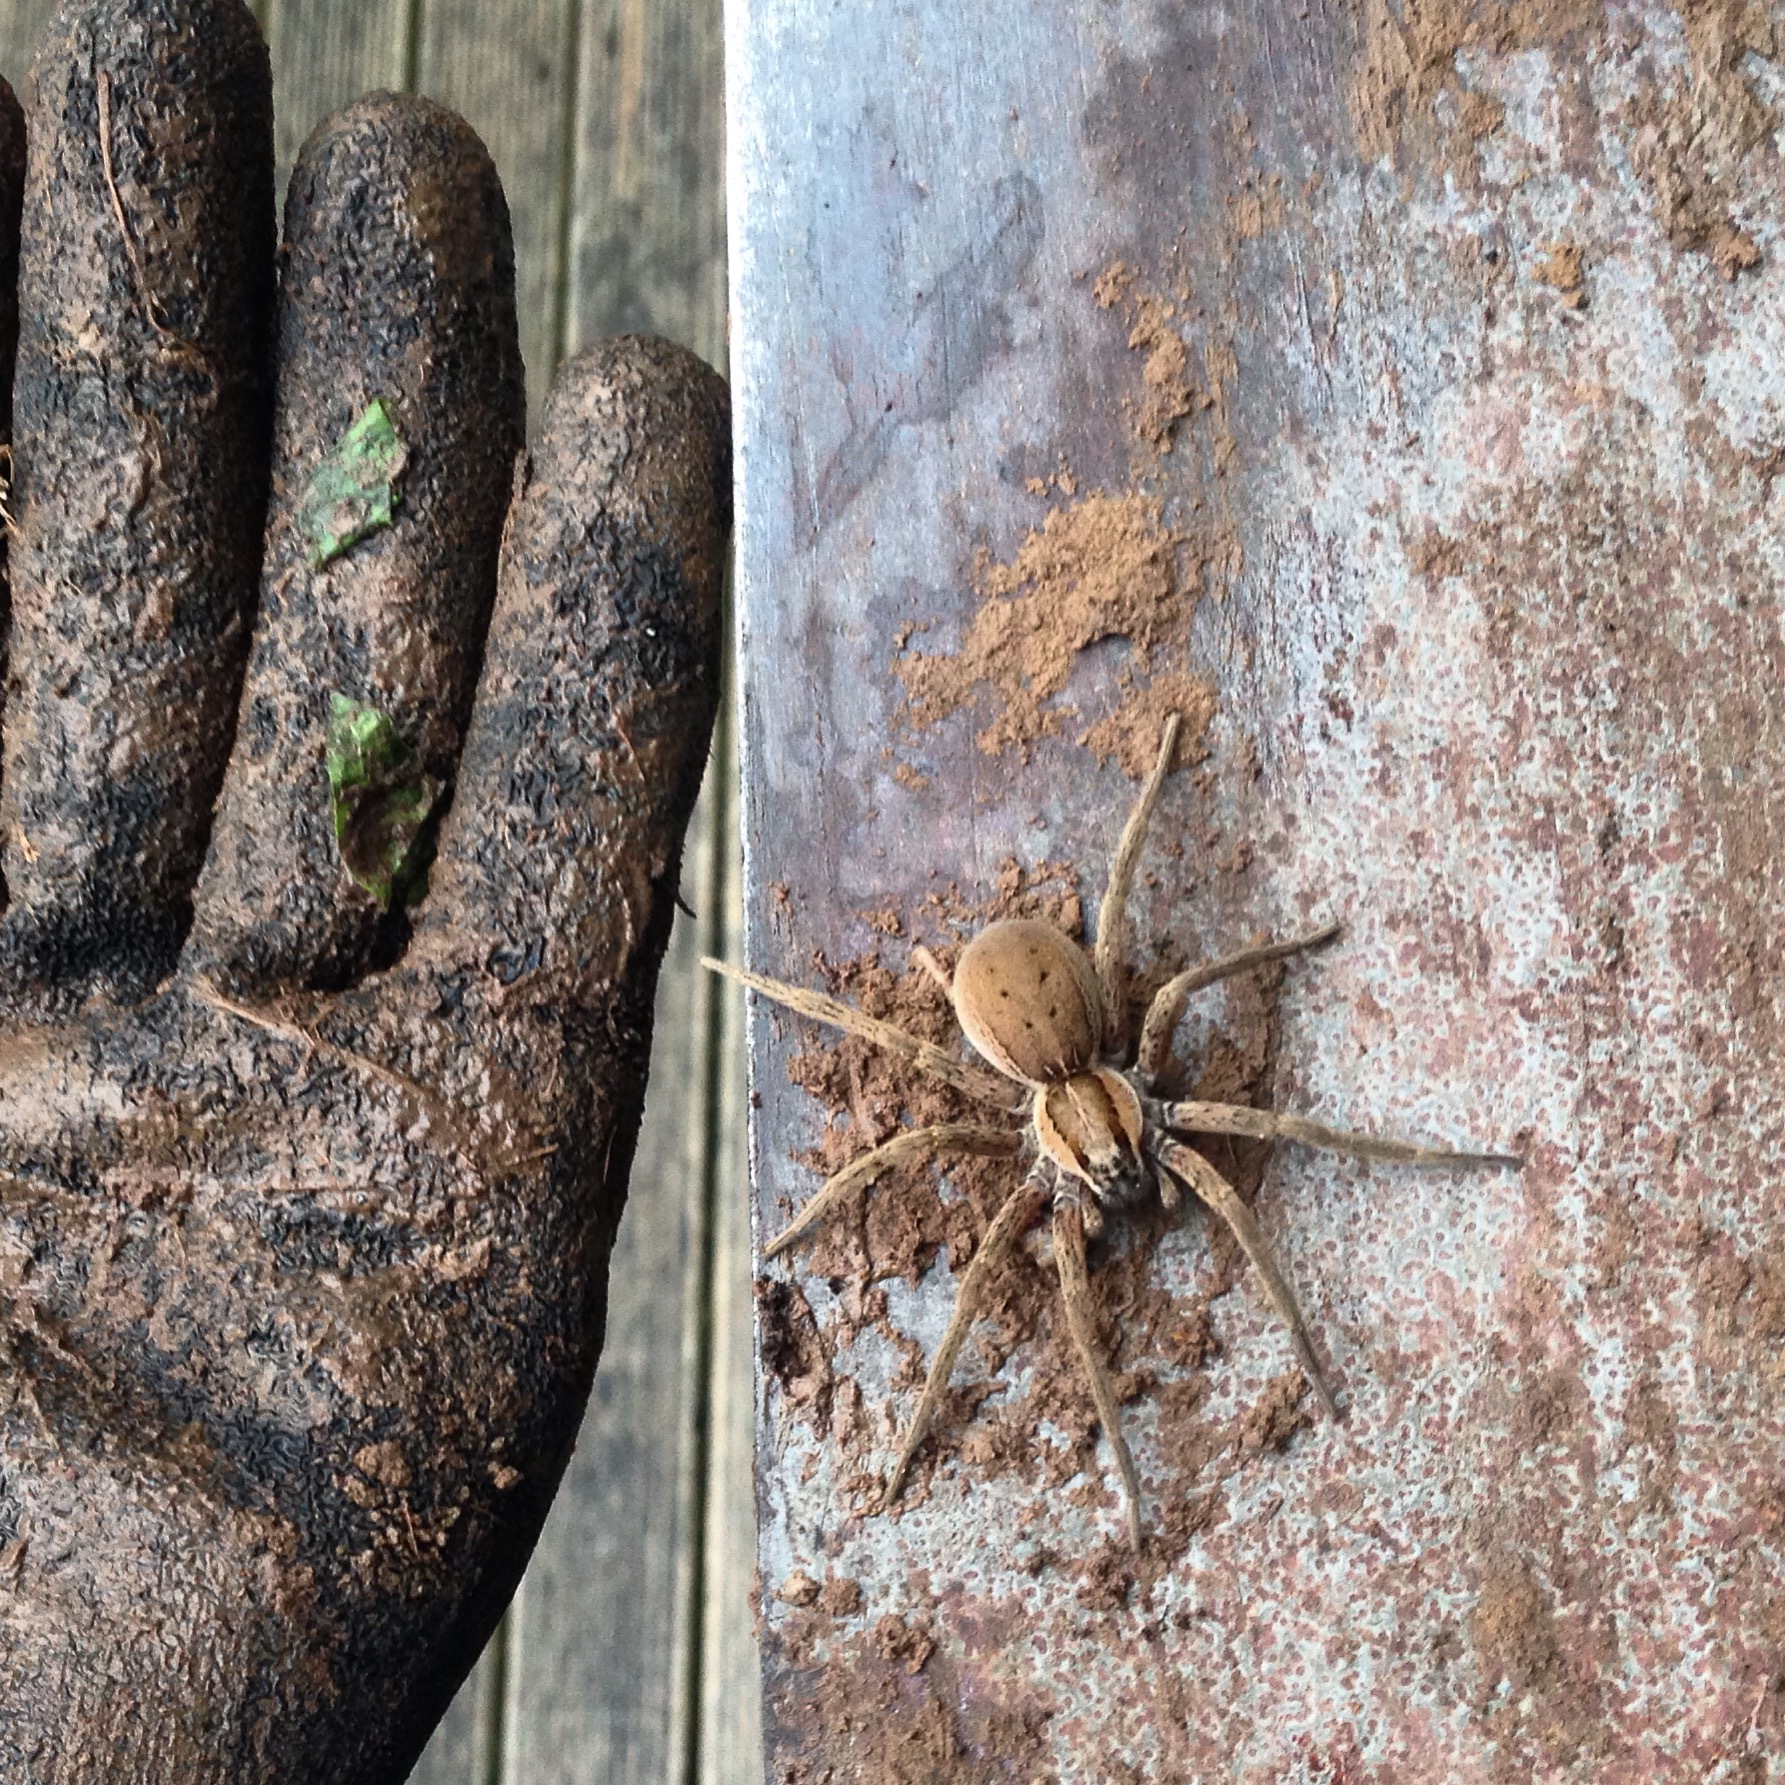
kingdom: Animalia
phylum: Arthropoda
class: Arachnida
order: Araneae
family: Pisauridae
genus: Dolomedes
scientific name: Dolomedes minor
